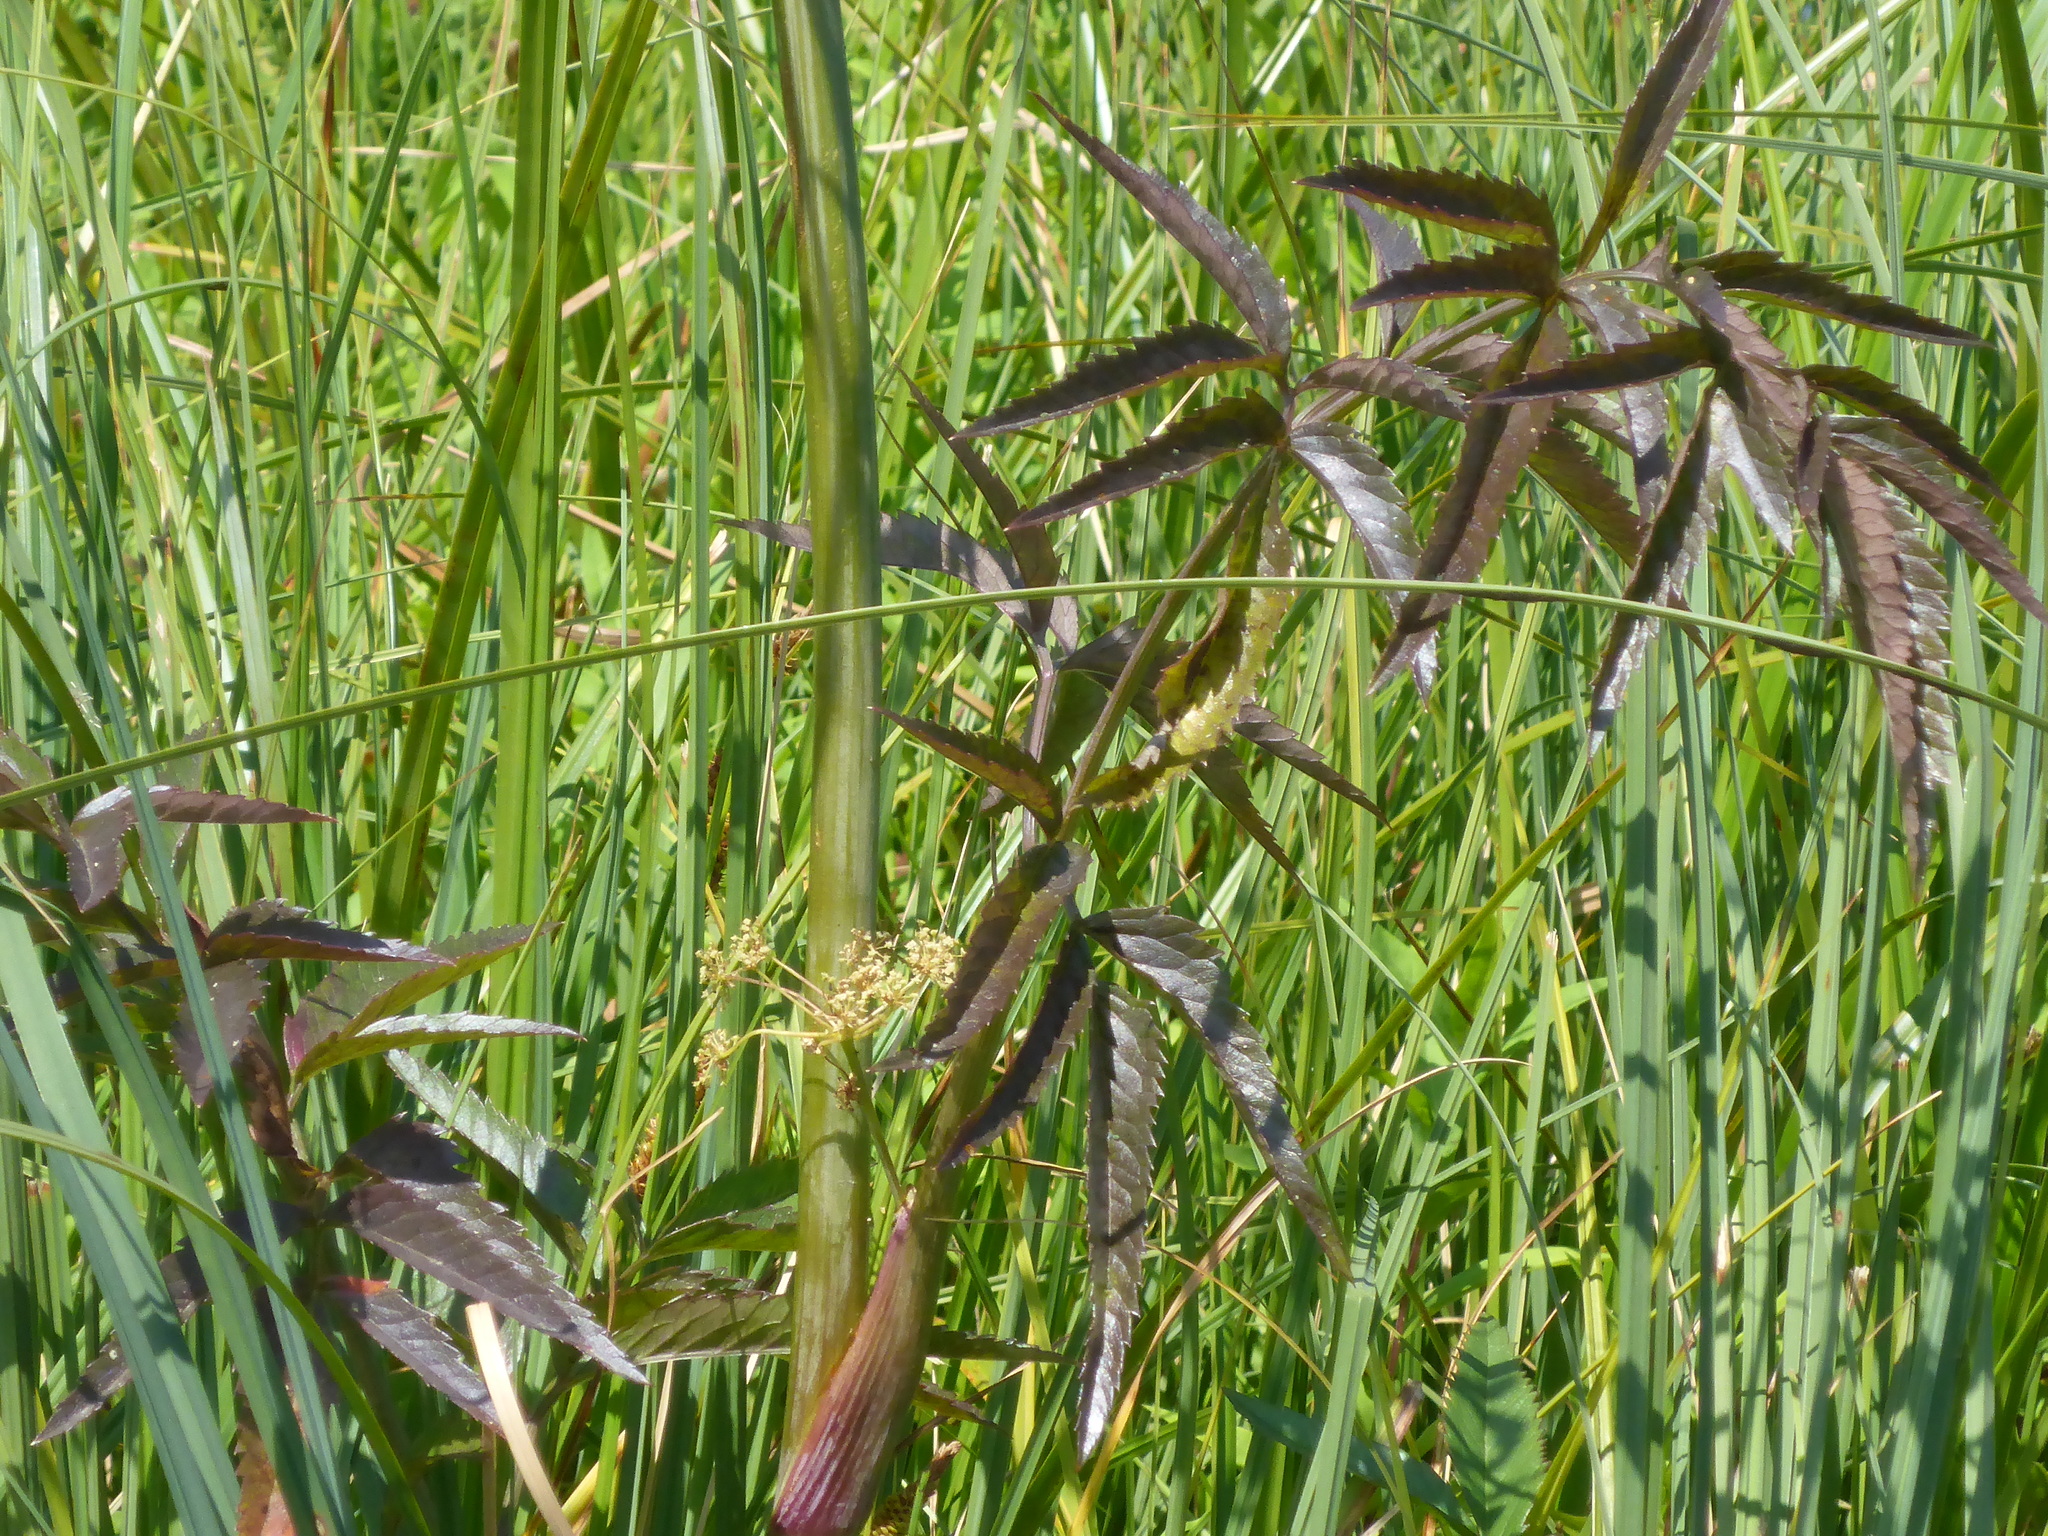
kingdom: Plantae
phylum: Tracheophyta
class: Magnoliopsida
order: Apiales
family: Apiaceae
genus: Cicuta
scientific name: Cicuta maculata
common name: Spotted cowbane
